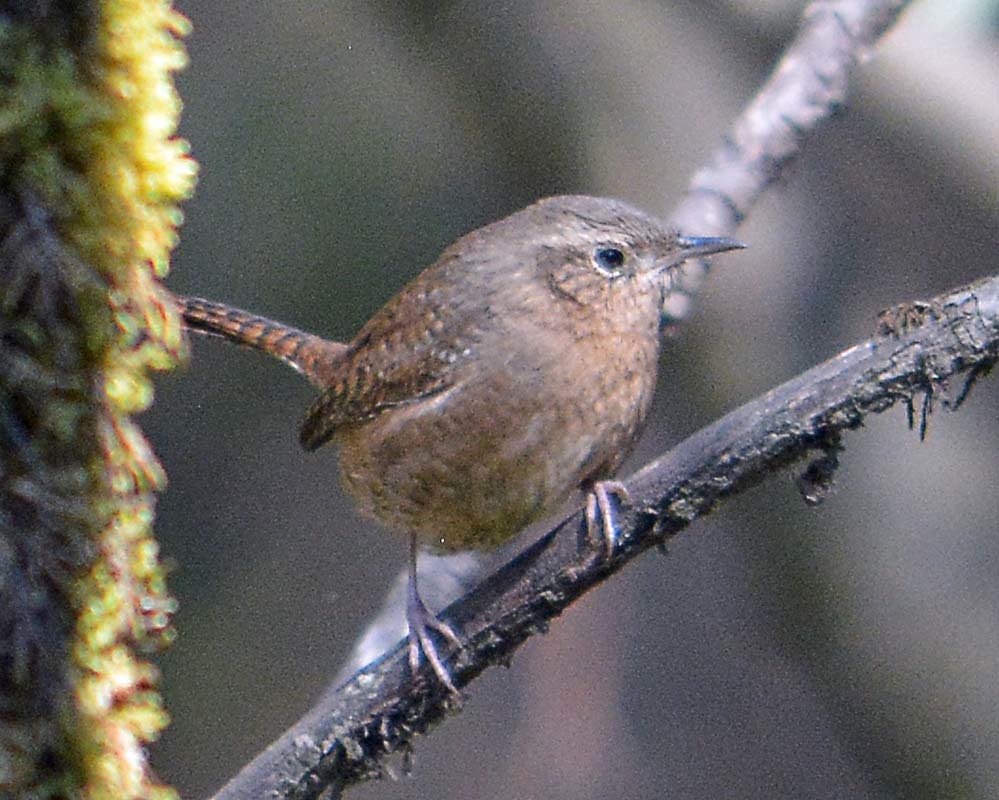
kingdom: Animalia
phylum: Chordata
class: Aves
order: Passeriformes
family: Troglodytidae
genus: Troglodytes
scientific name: Troglodytes aedon
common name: House wren
